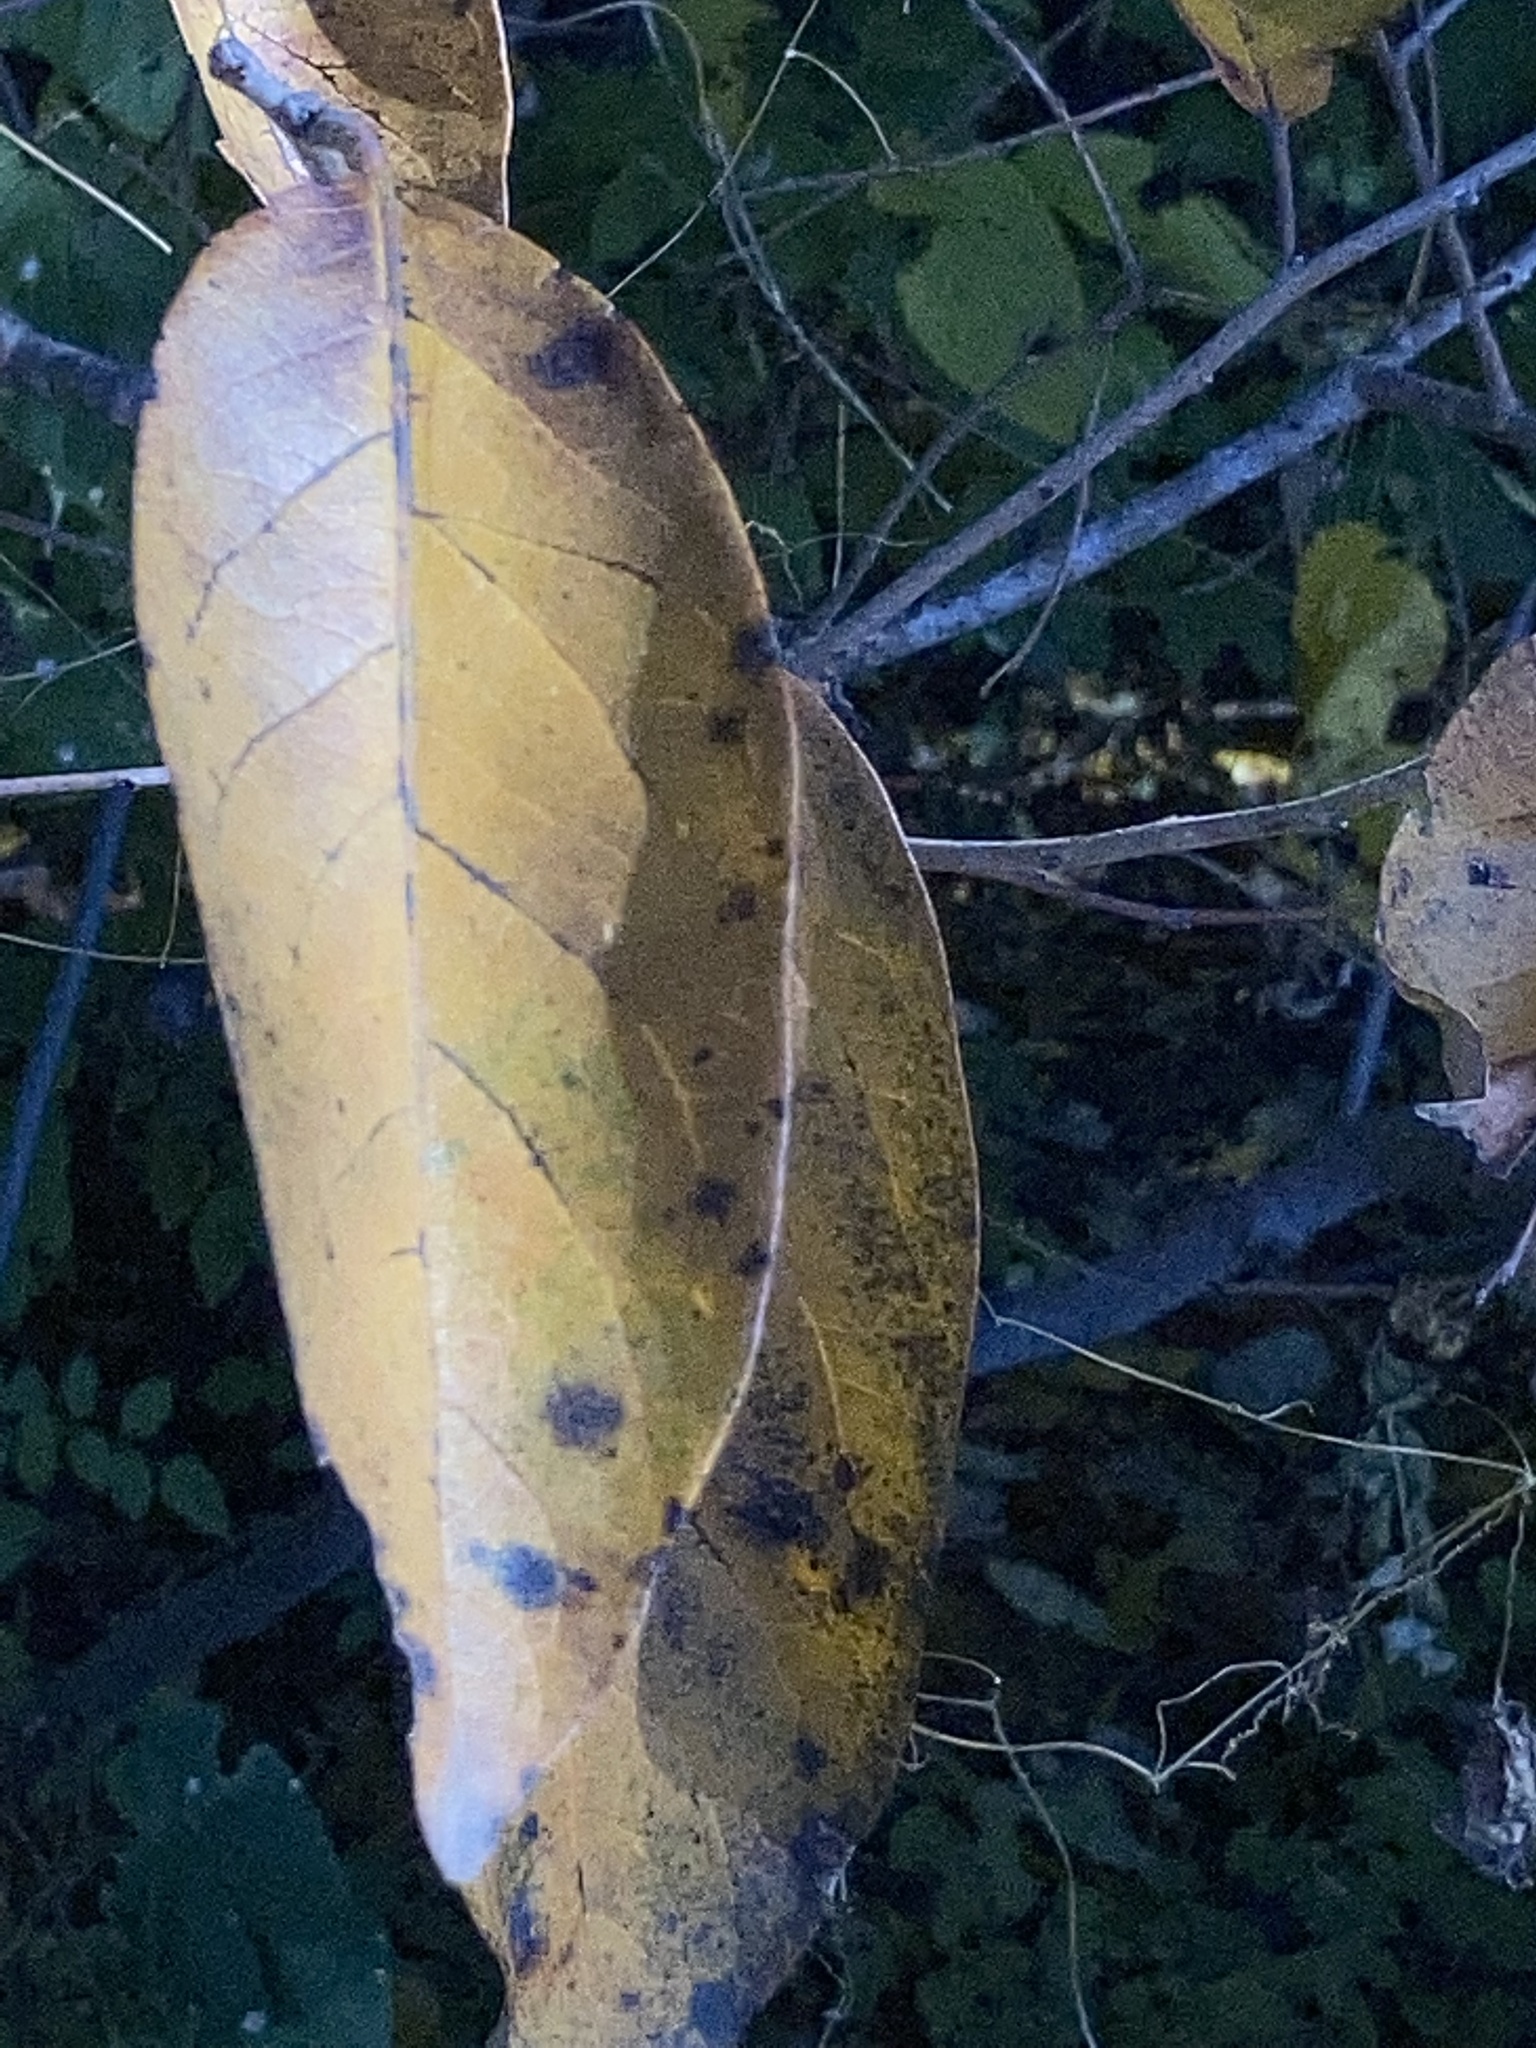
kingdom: Plantae
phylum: Tracheophyta
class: Magnoliopsida
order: Cucurbitales
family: Cucurbitaceae
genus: Melothria
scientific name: Melothria pendula
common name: Creeping-cucumber
